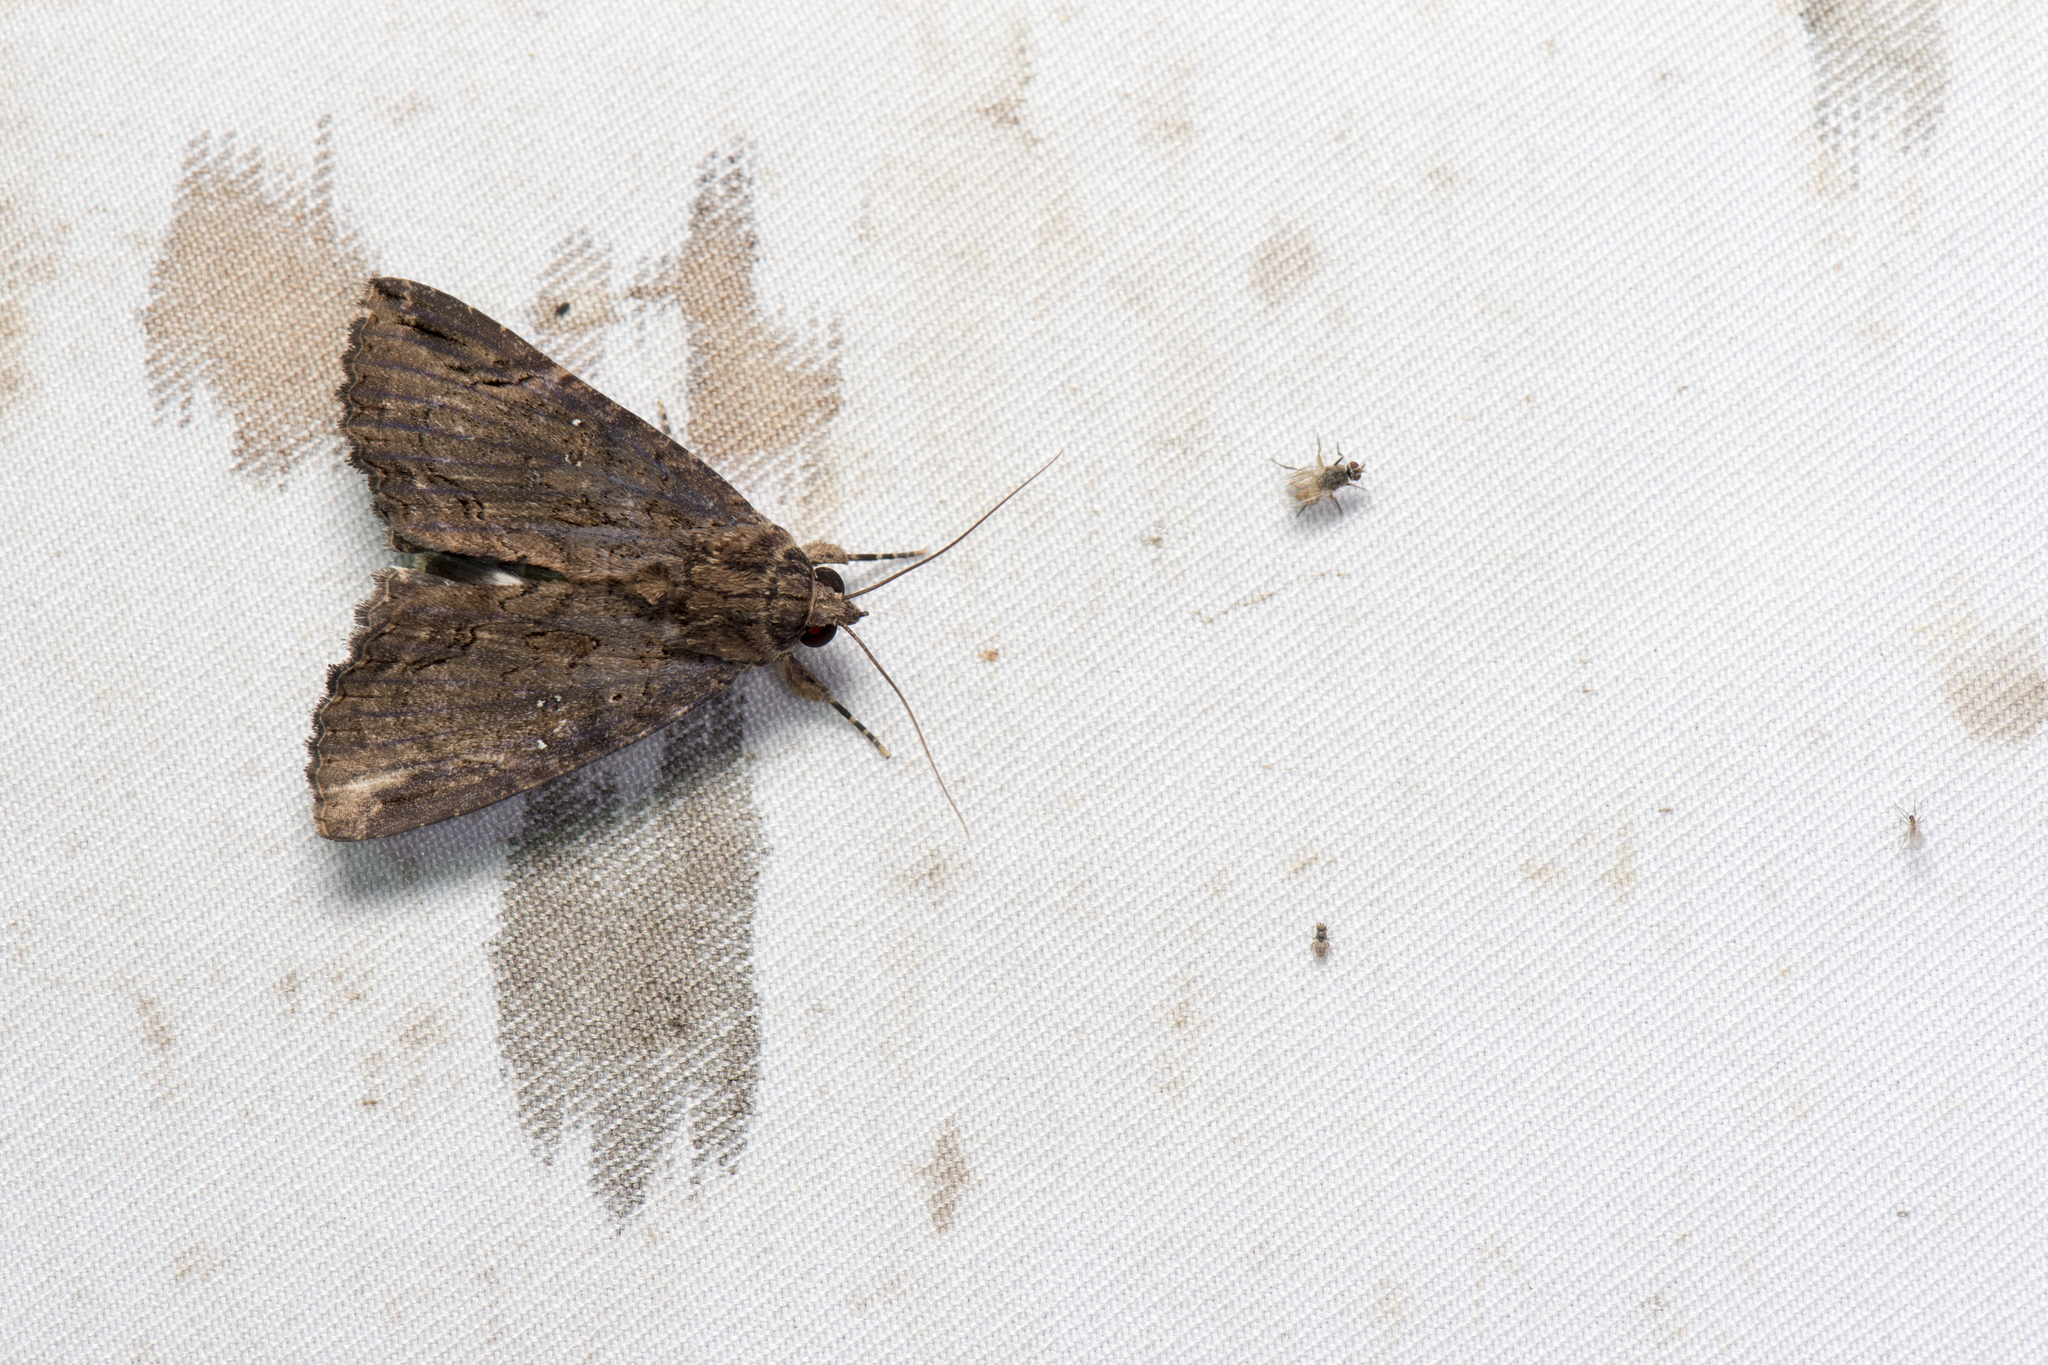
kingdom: Animalia
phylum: Arthropoda
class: Insecta
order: Lepidoptera
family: Erebidae
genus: Ercheia
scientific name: Ercheia cyllaria
